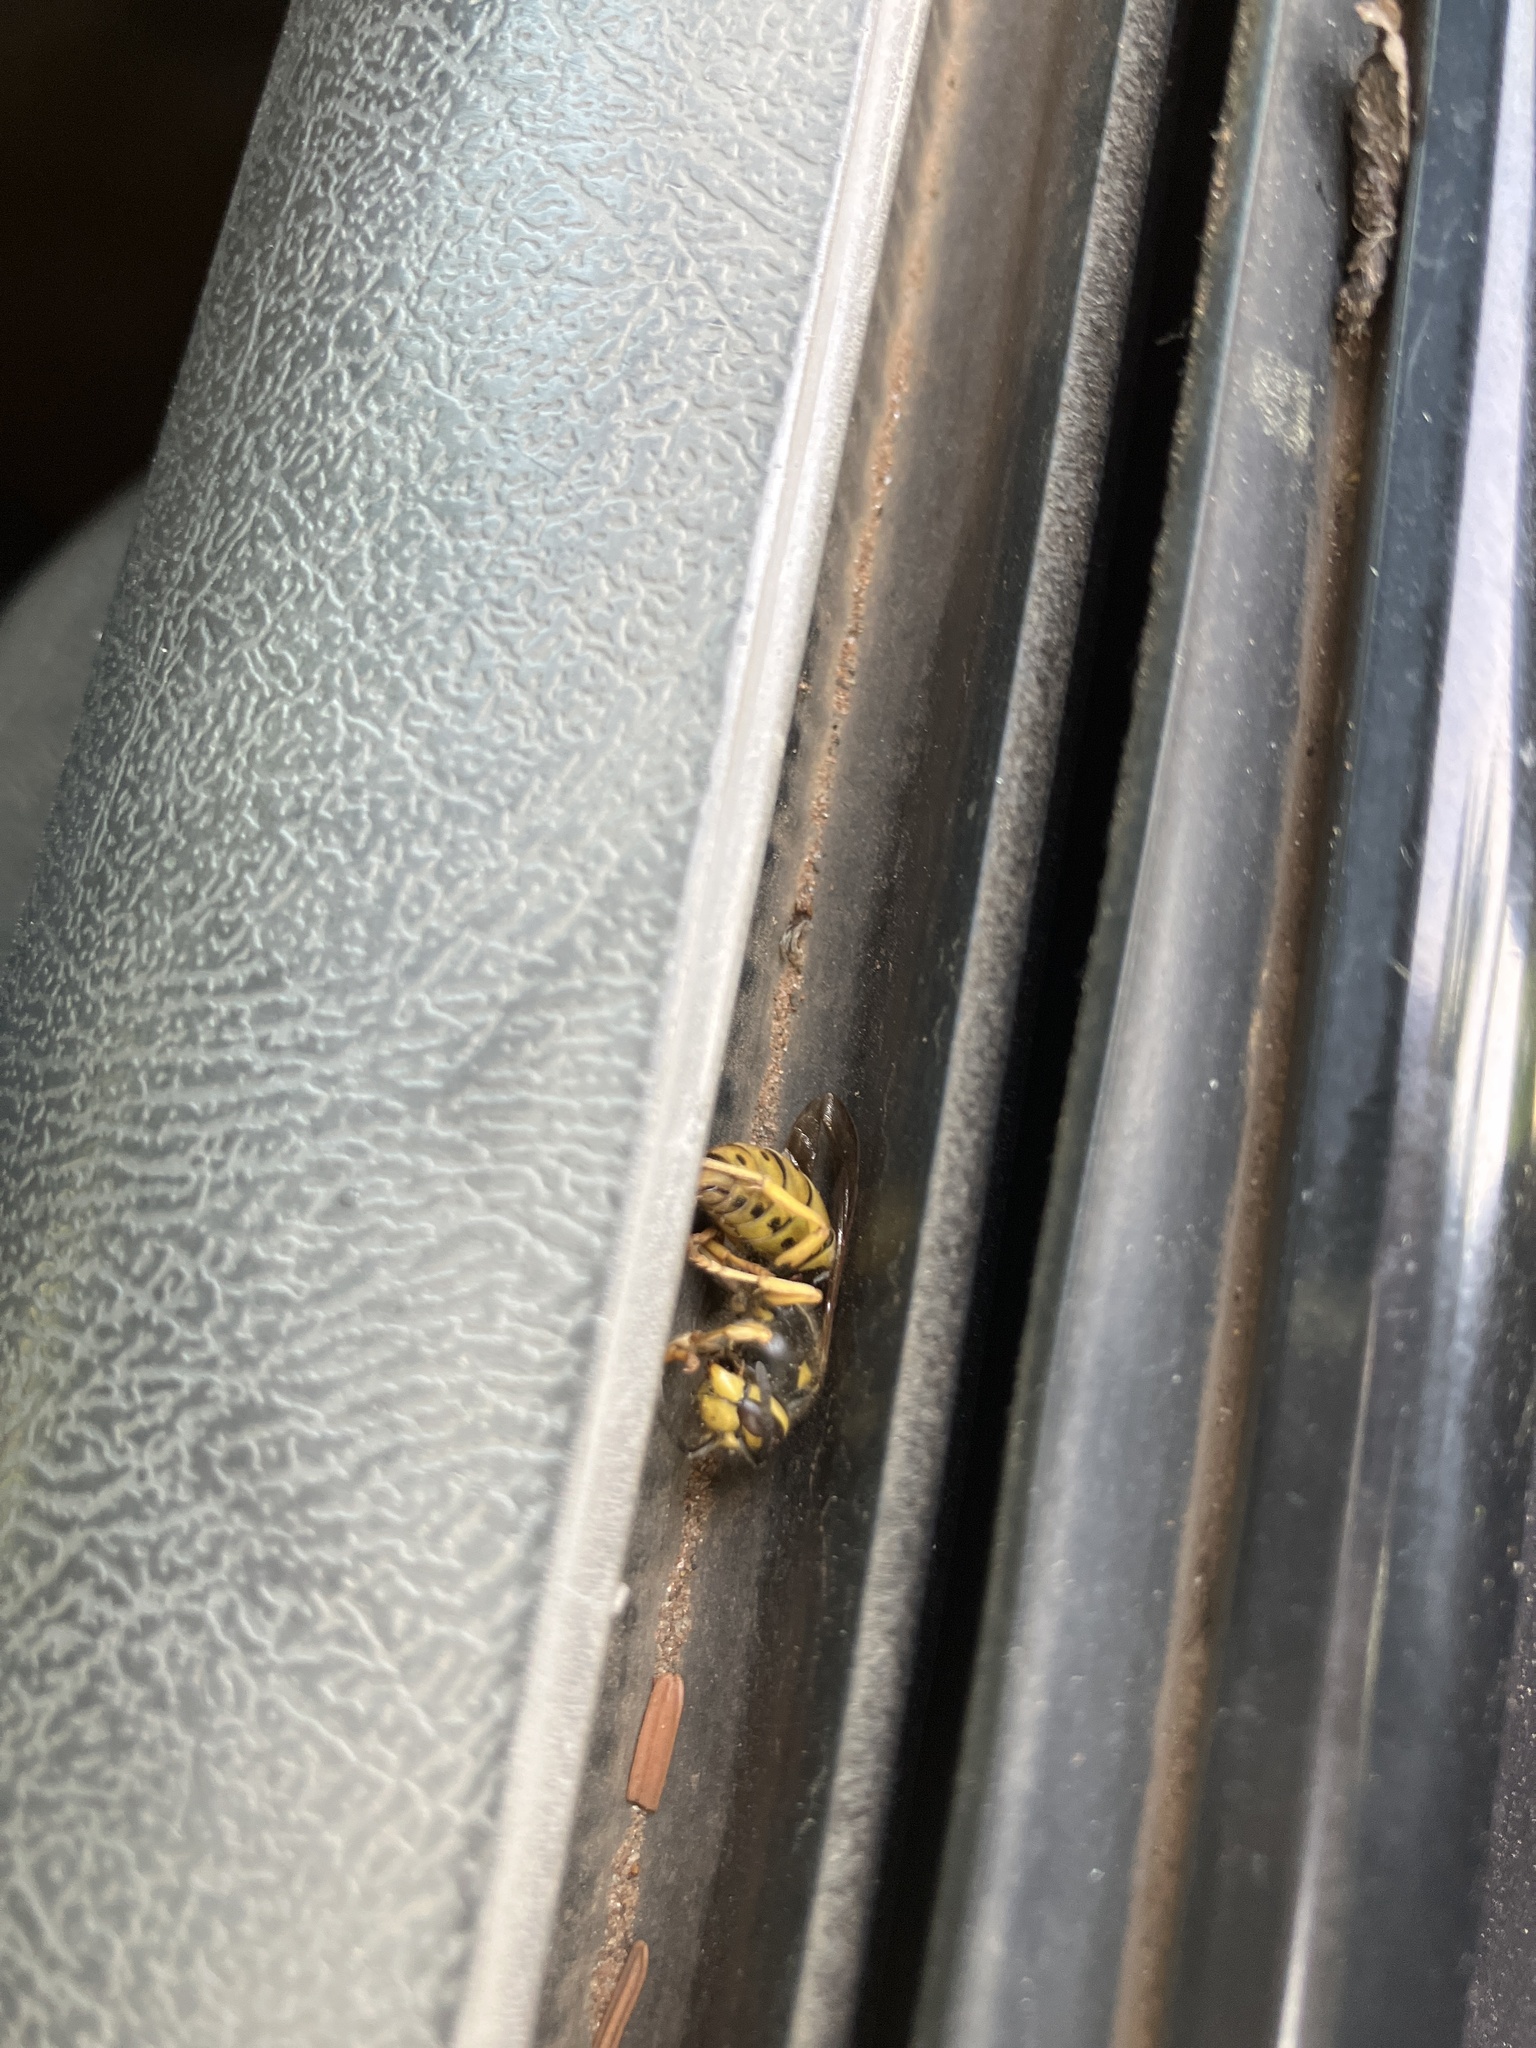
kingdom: Animalia
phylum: Arthropoda
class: Insecta
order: Hymenoptera
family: Vespidae
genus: Vespula
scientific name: Vespula
